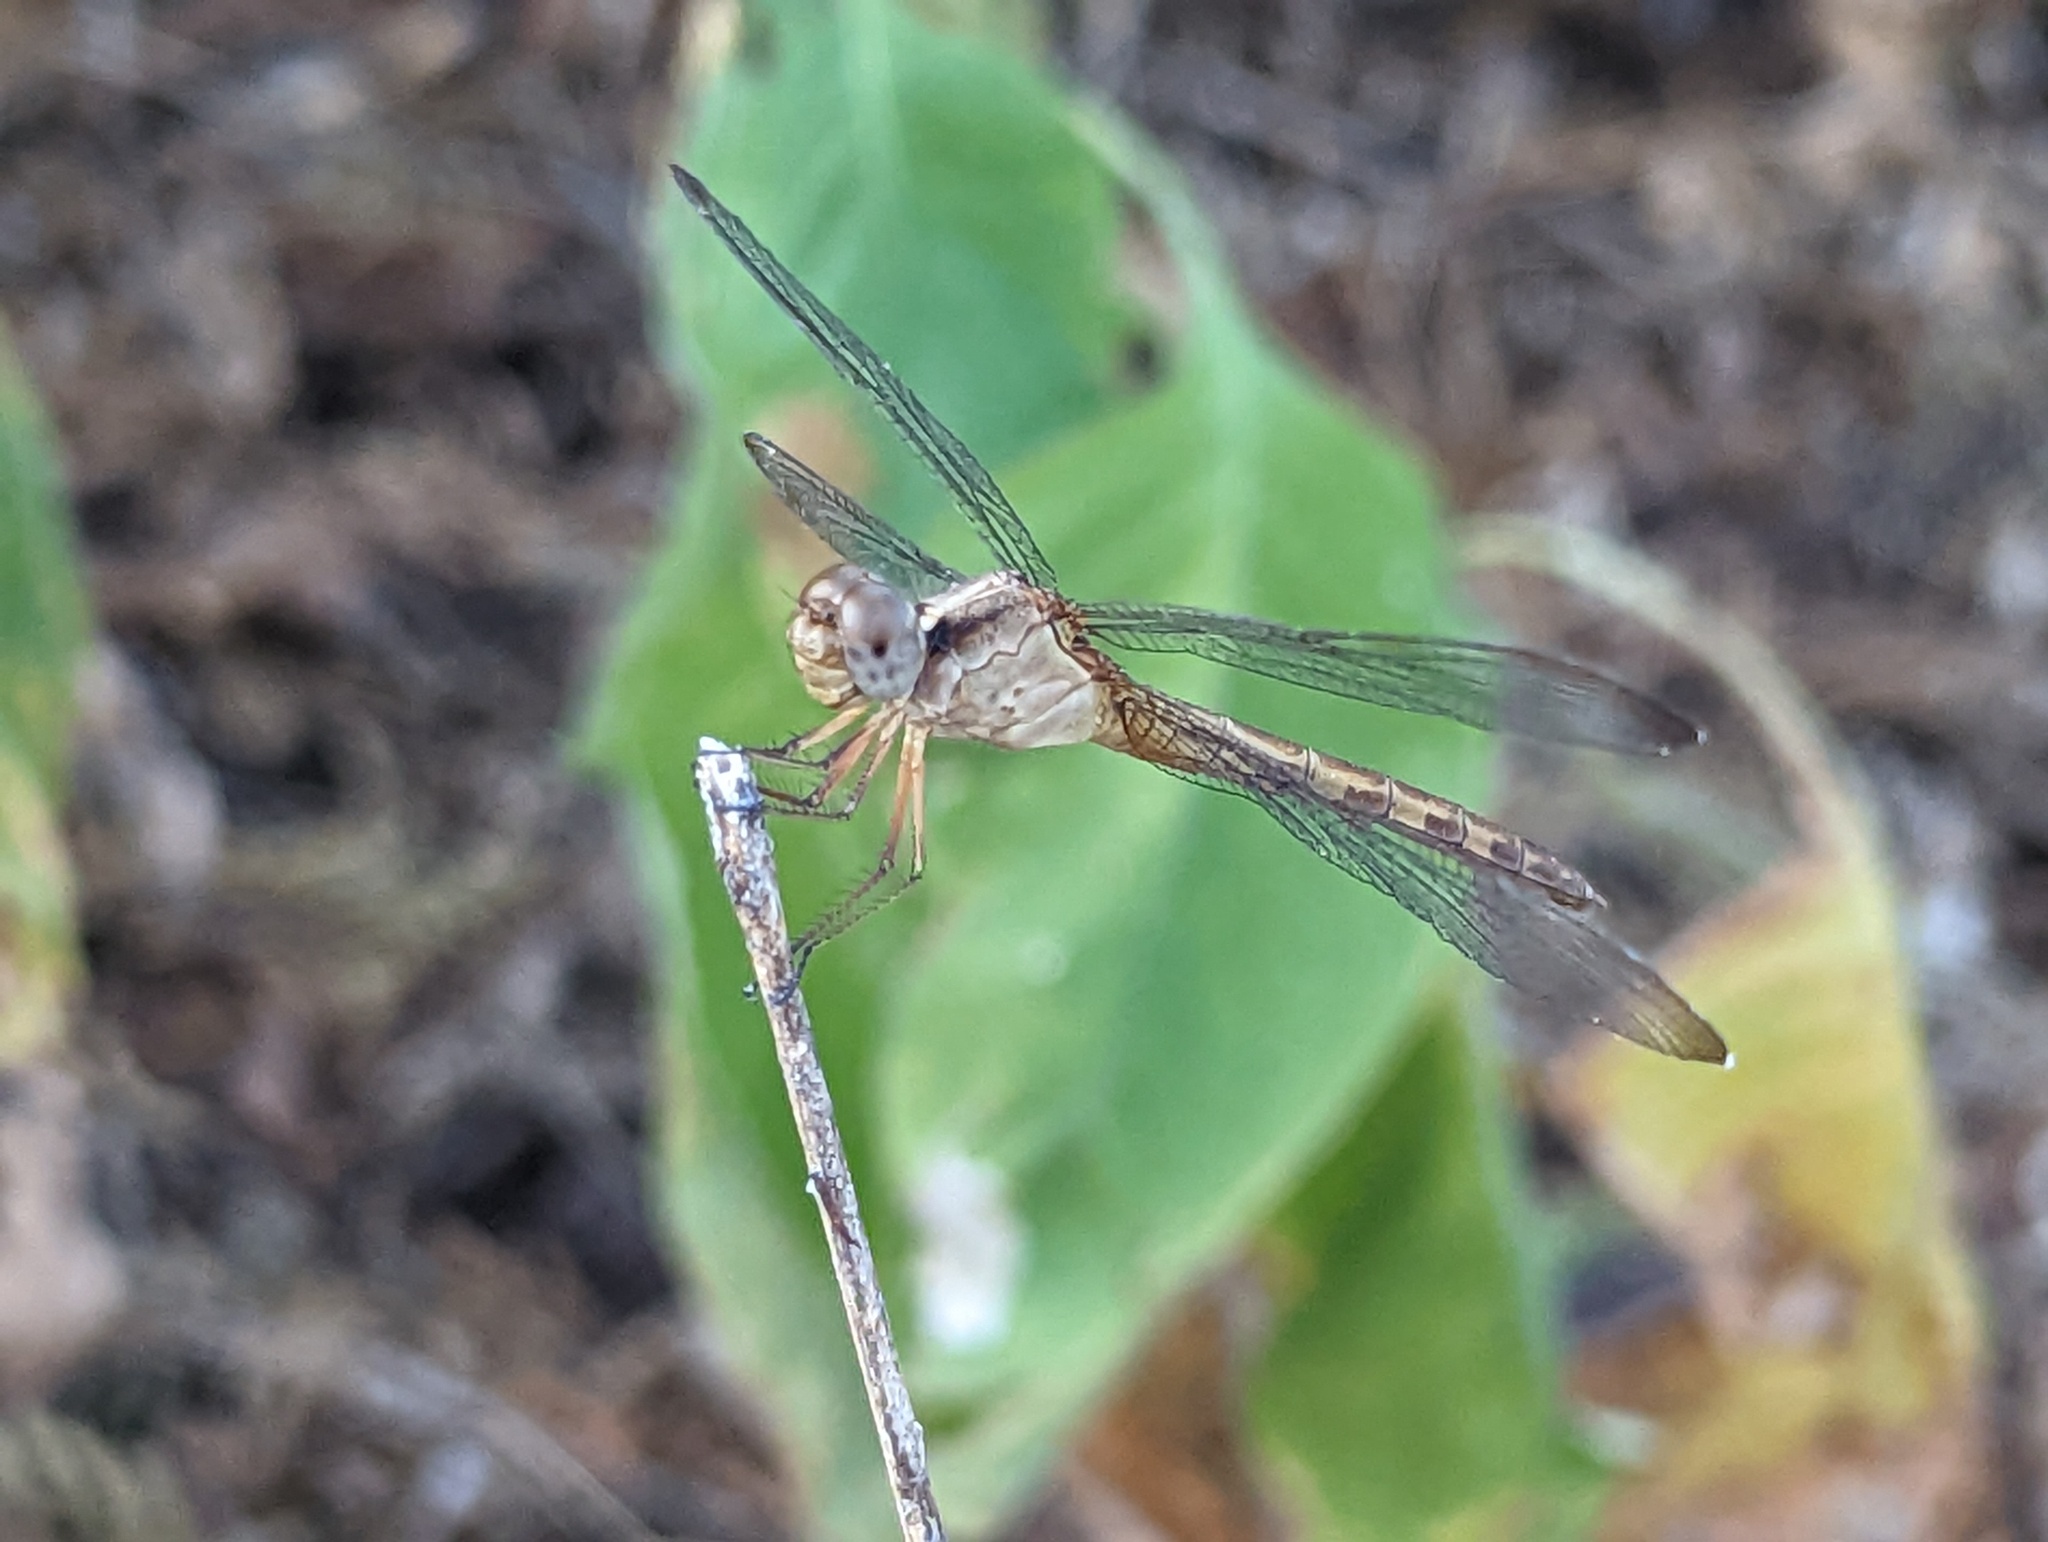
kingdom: Animalia
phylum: Arthropoda
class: Insecta
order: Odonata
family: Libellulidae
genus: Erythrodiplax
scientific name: Erythrodiplax funerea
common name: Black-winged dragonlet
